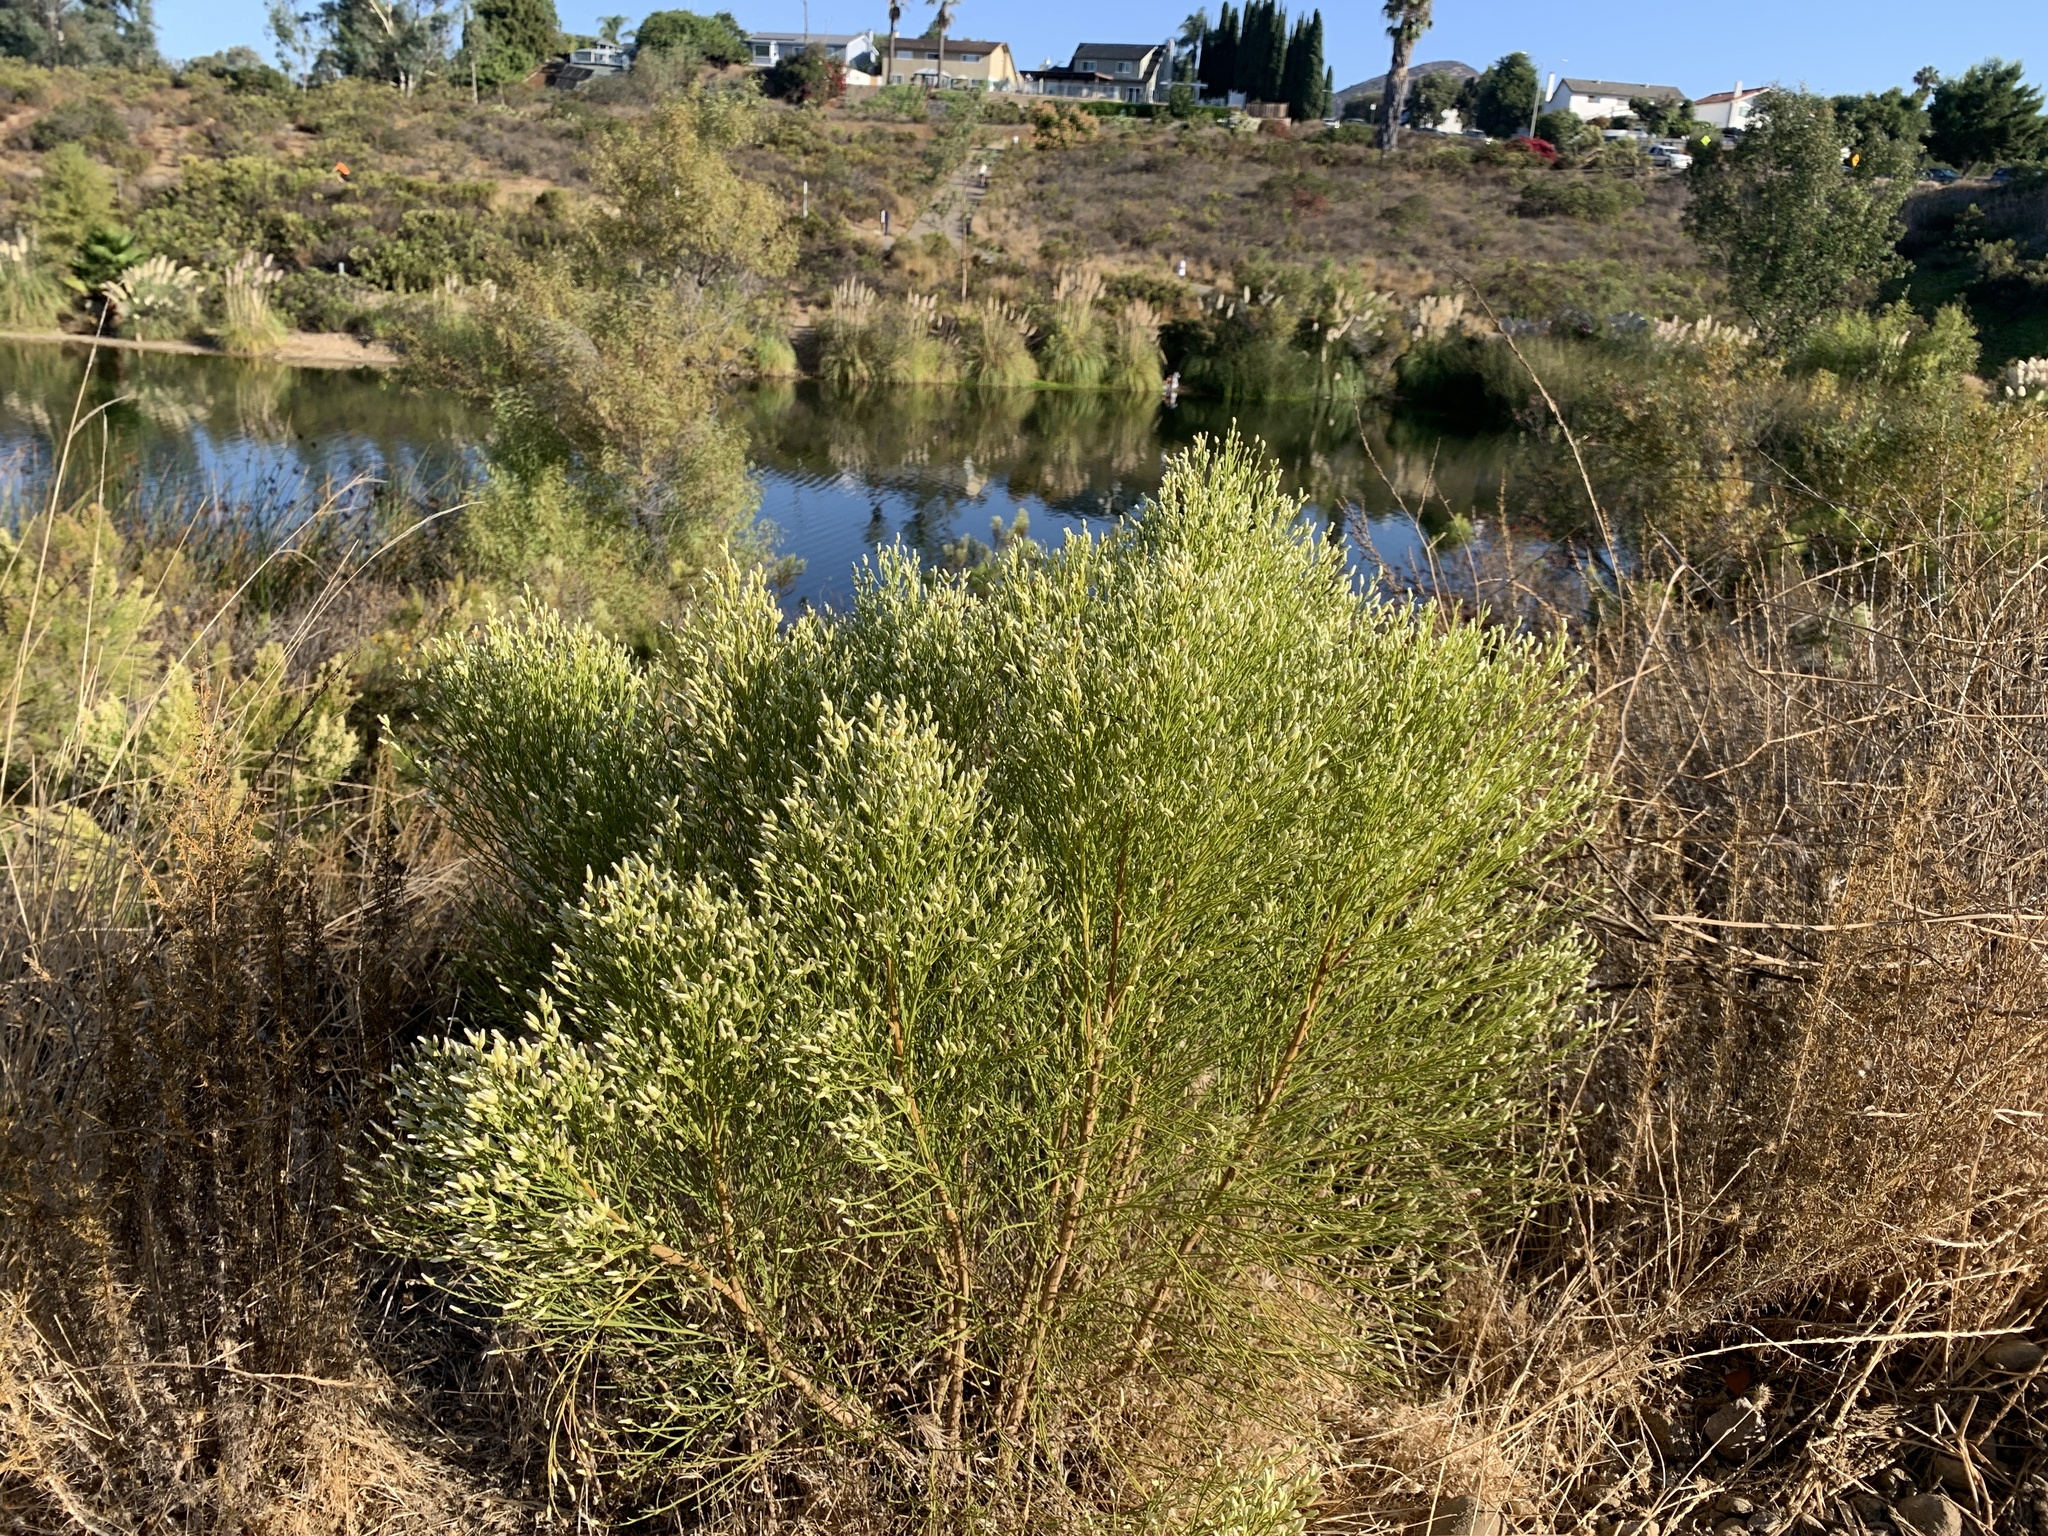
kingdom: Plantae
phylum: Tracheophyta
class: Magnoliopsida
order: Asterales
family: Asteraceae
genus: Baccharis
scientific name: Baccharis sarothroides
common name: Desert-broom
